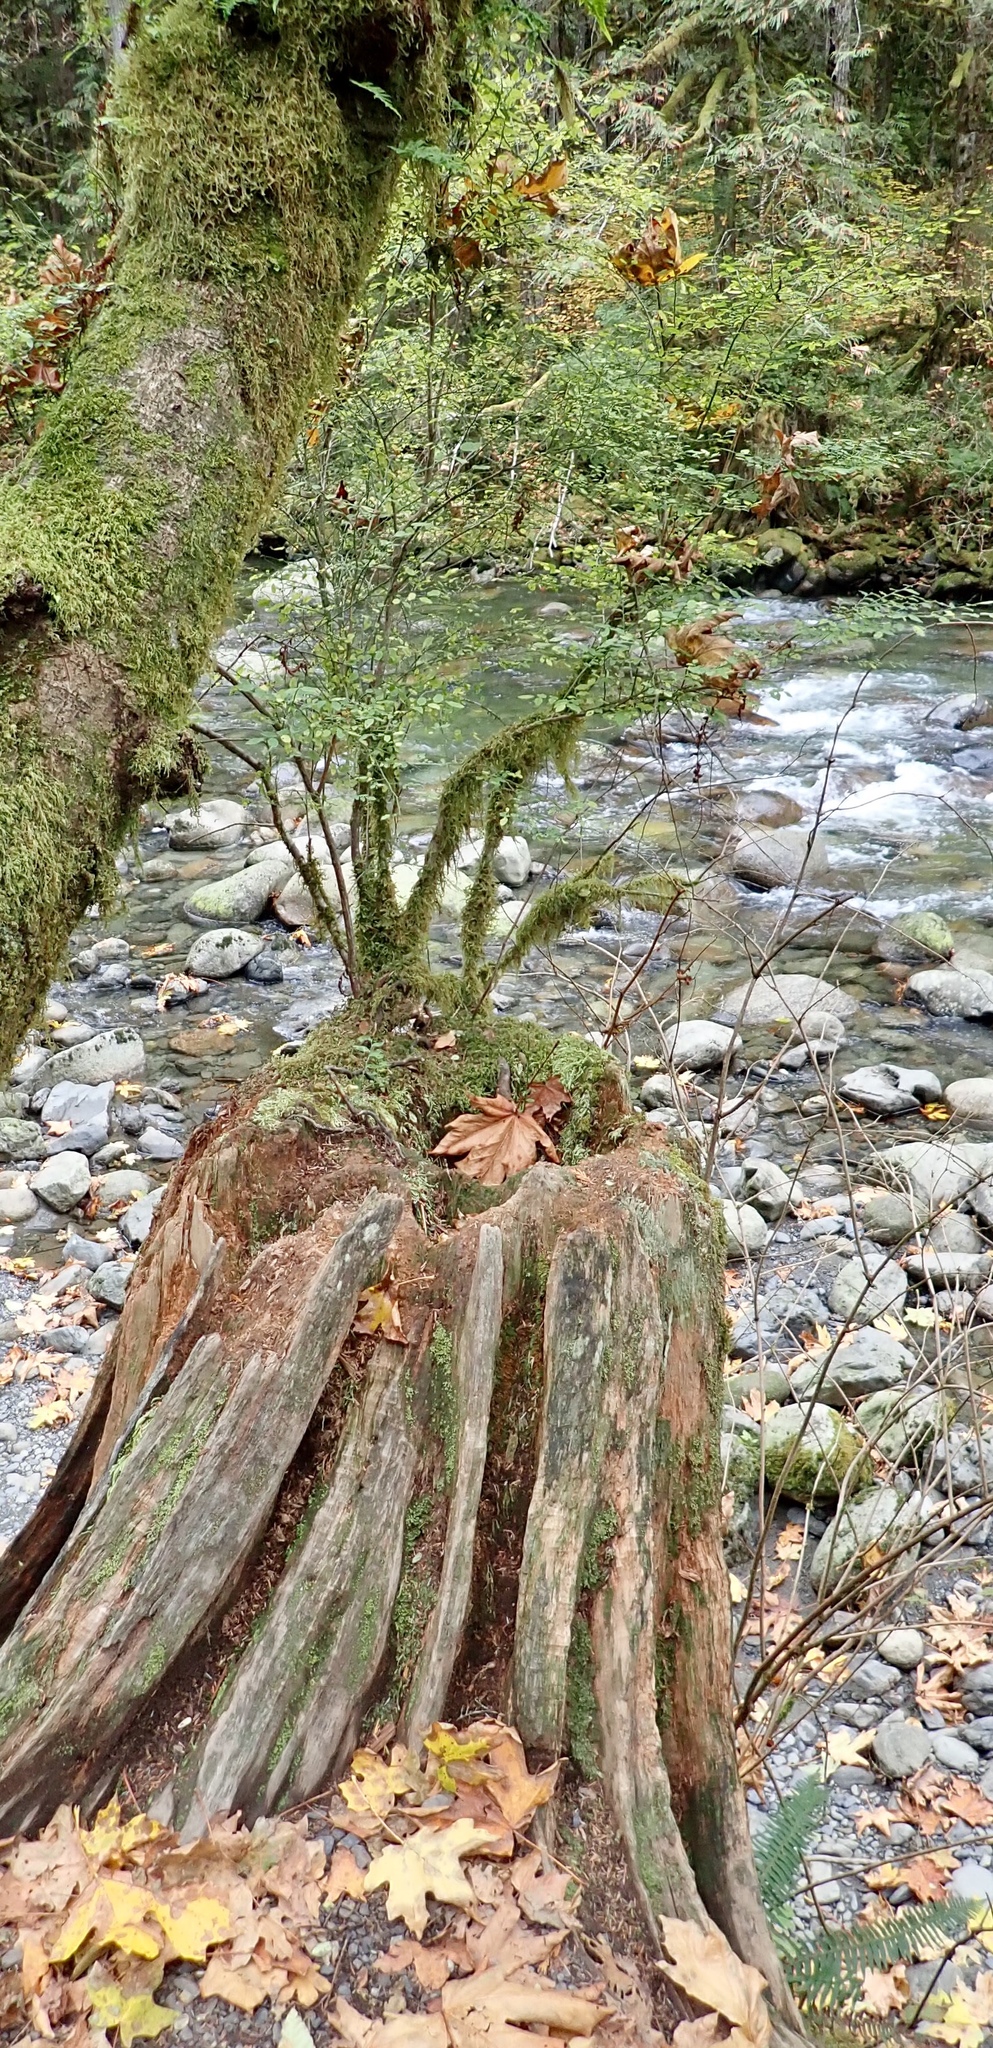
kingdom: Plantae
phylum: Tracheophyta
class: Magnoliopsida
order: Ericales
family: Ericaceae
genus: Vaccinium
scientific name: Vaccinium parvifolium
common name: Red-huckleberry
